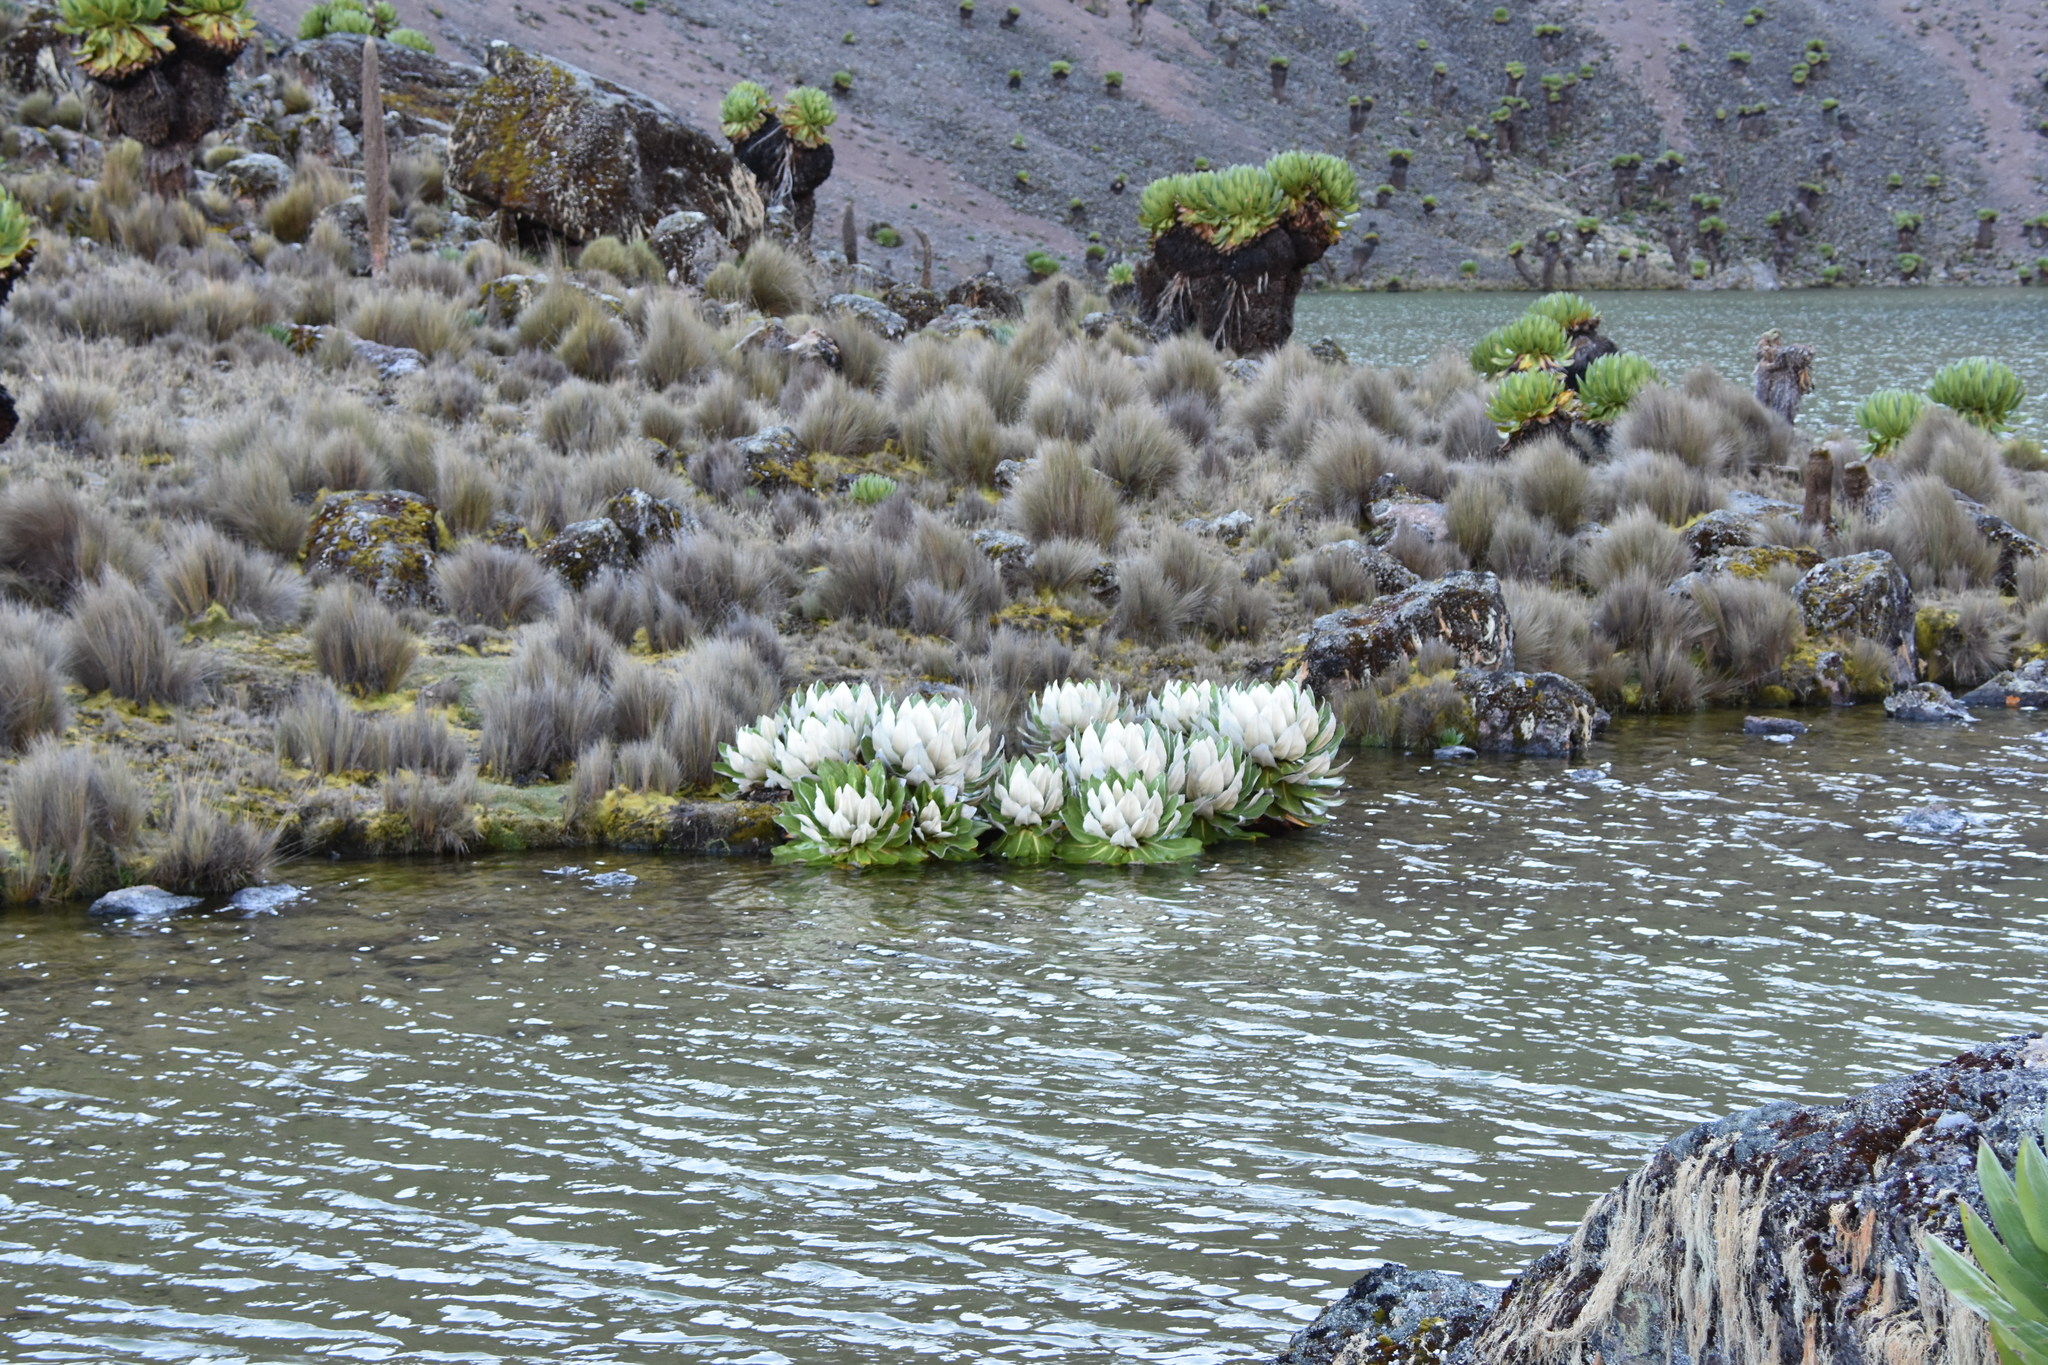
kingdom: Plantae
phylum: Tracheophyta
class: Magnoliopsida
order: Asterales
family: Asteraceae
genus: Dendrosenecio
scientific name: Dendrosenecio keniensis
